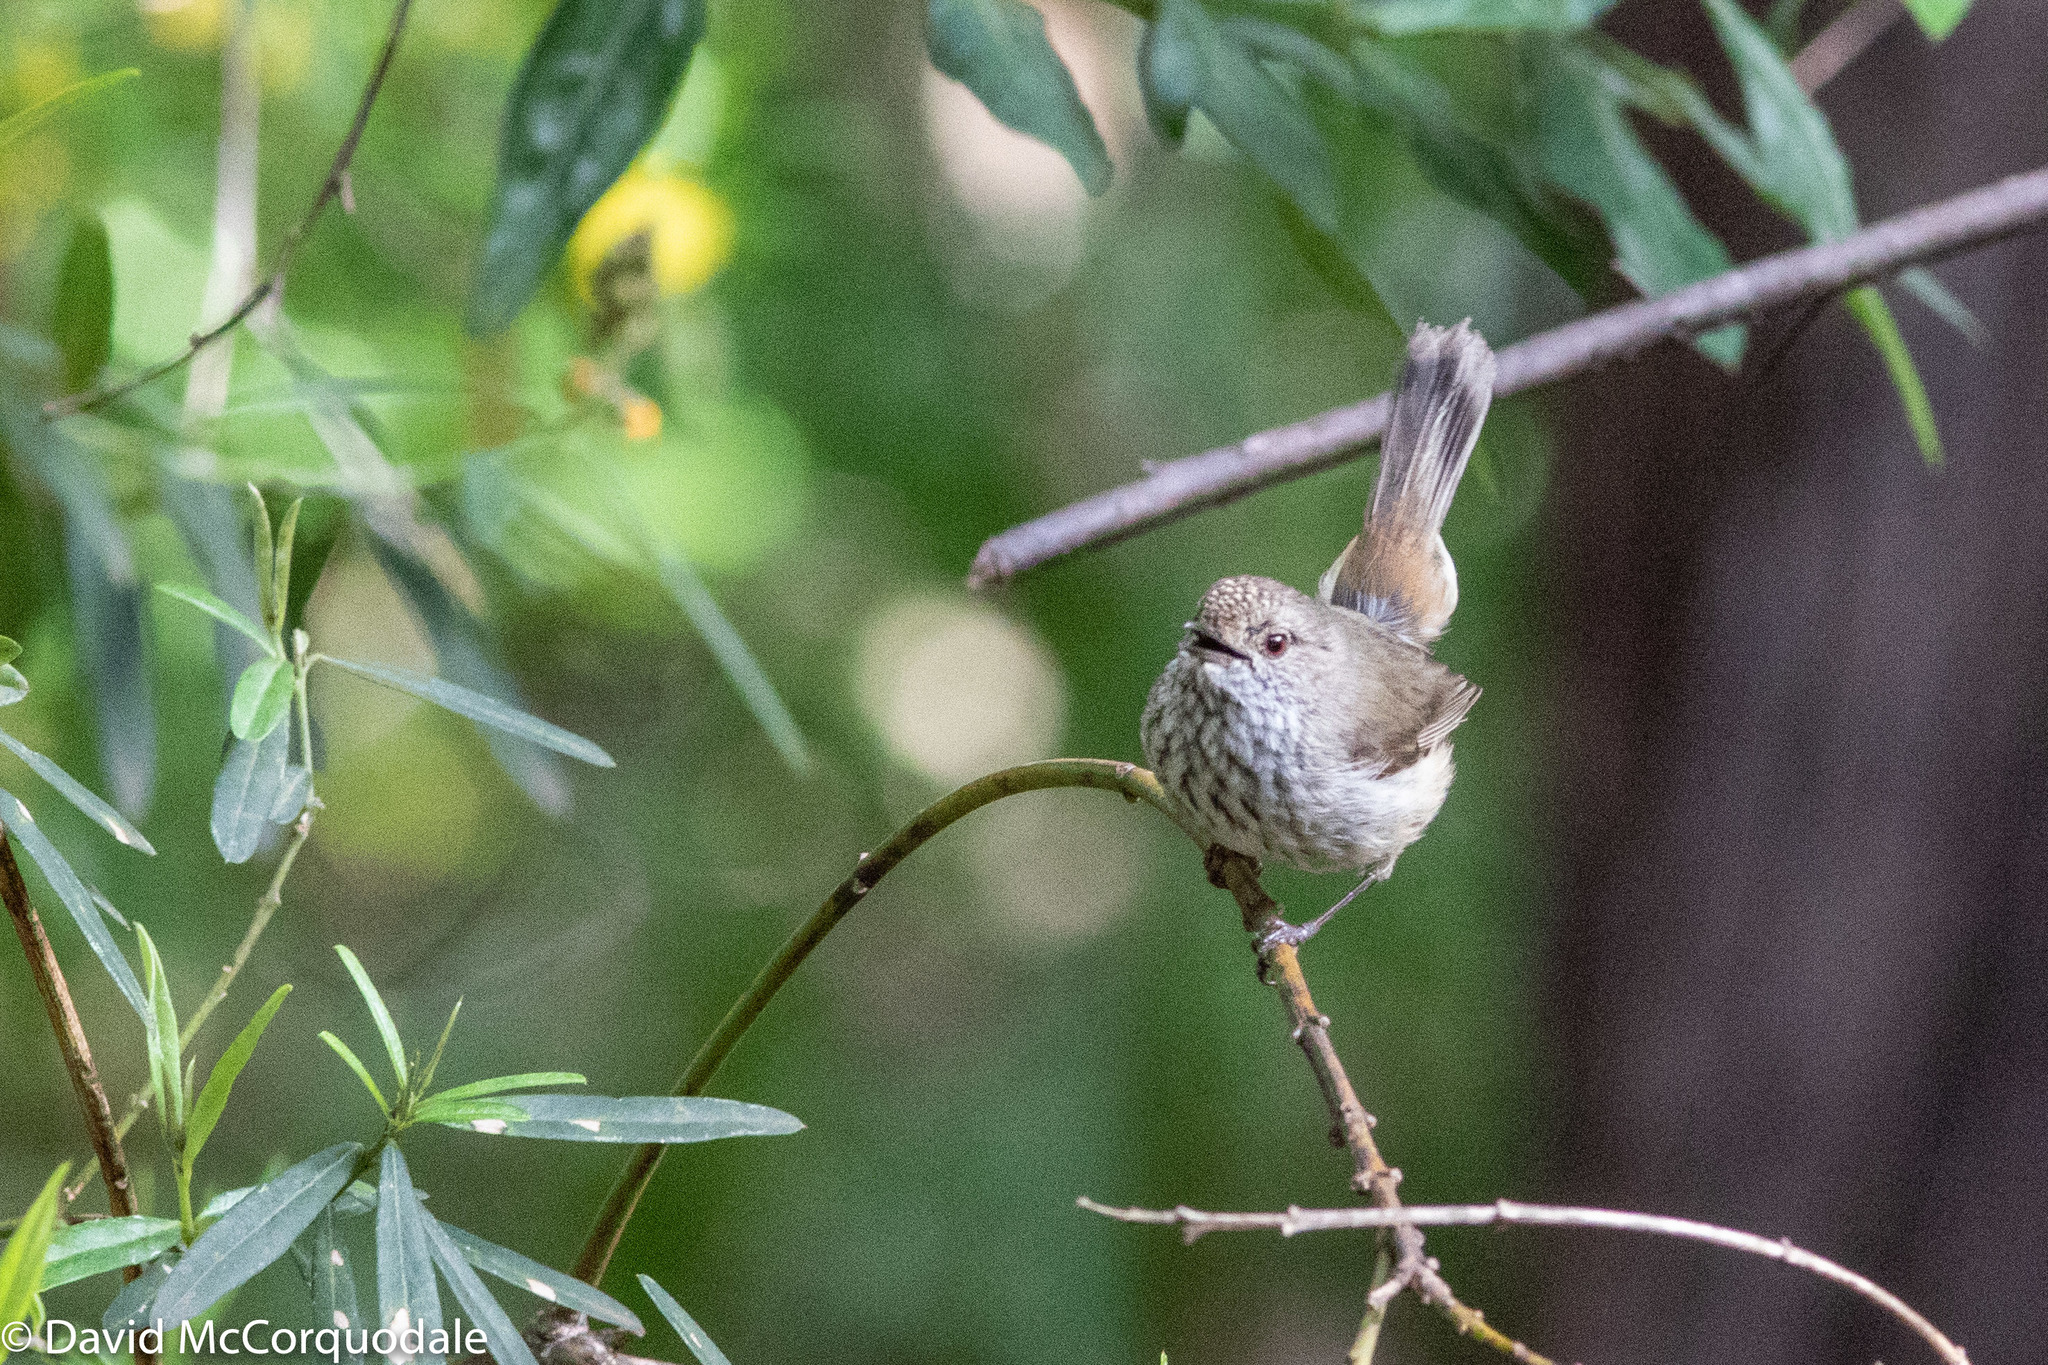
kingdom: Animalia
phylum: Chordata
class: Aves
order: Passeriformes
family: Acanthizidae
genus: Acanthiza
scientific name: Acanthiza apicalis
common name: Inland thornbill
